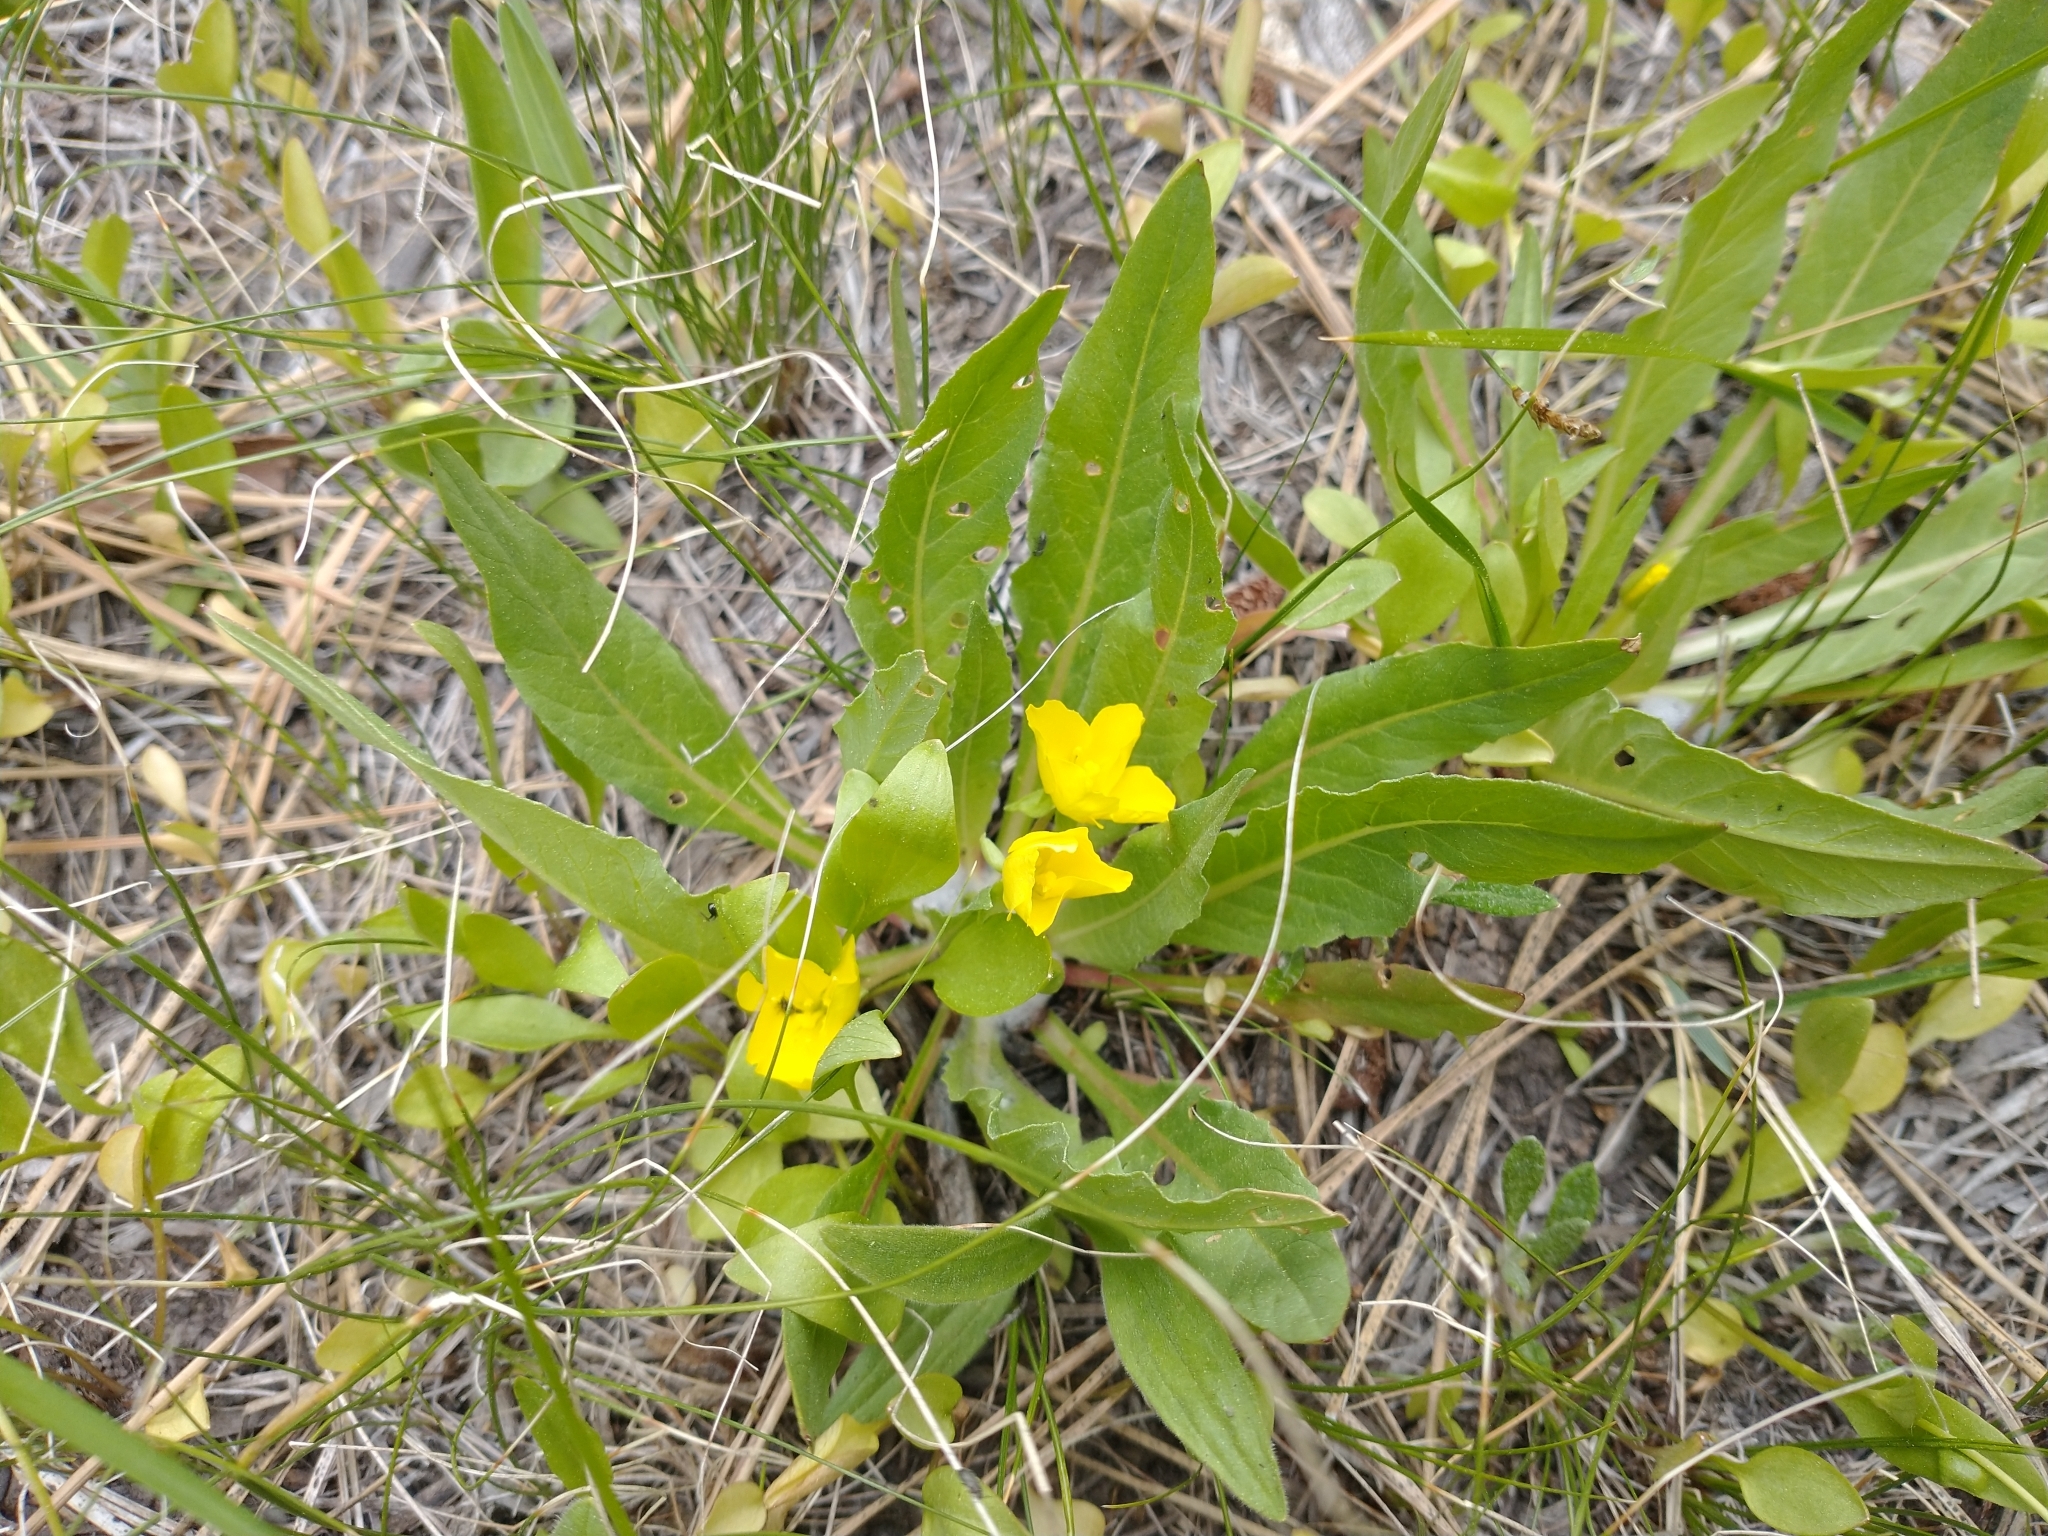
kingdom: Plantae
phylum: Tracheophyta
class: Magnoliopsida
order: Myrtales
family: Onagraceae
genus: Taraxia
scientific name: Taraxia subacaulis
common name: Diffuseflower evening primrose
